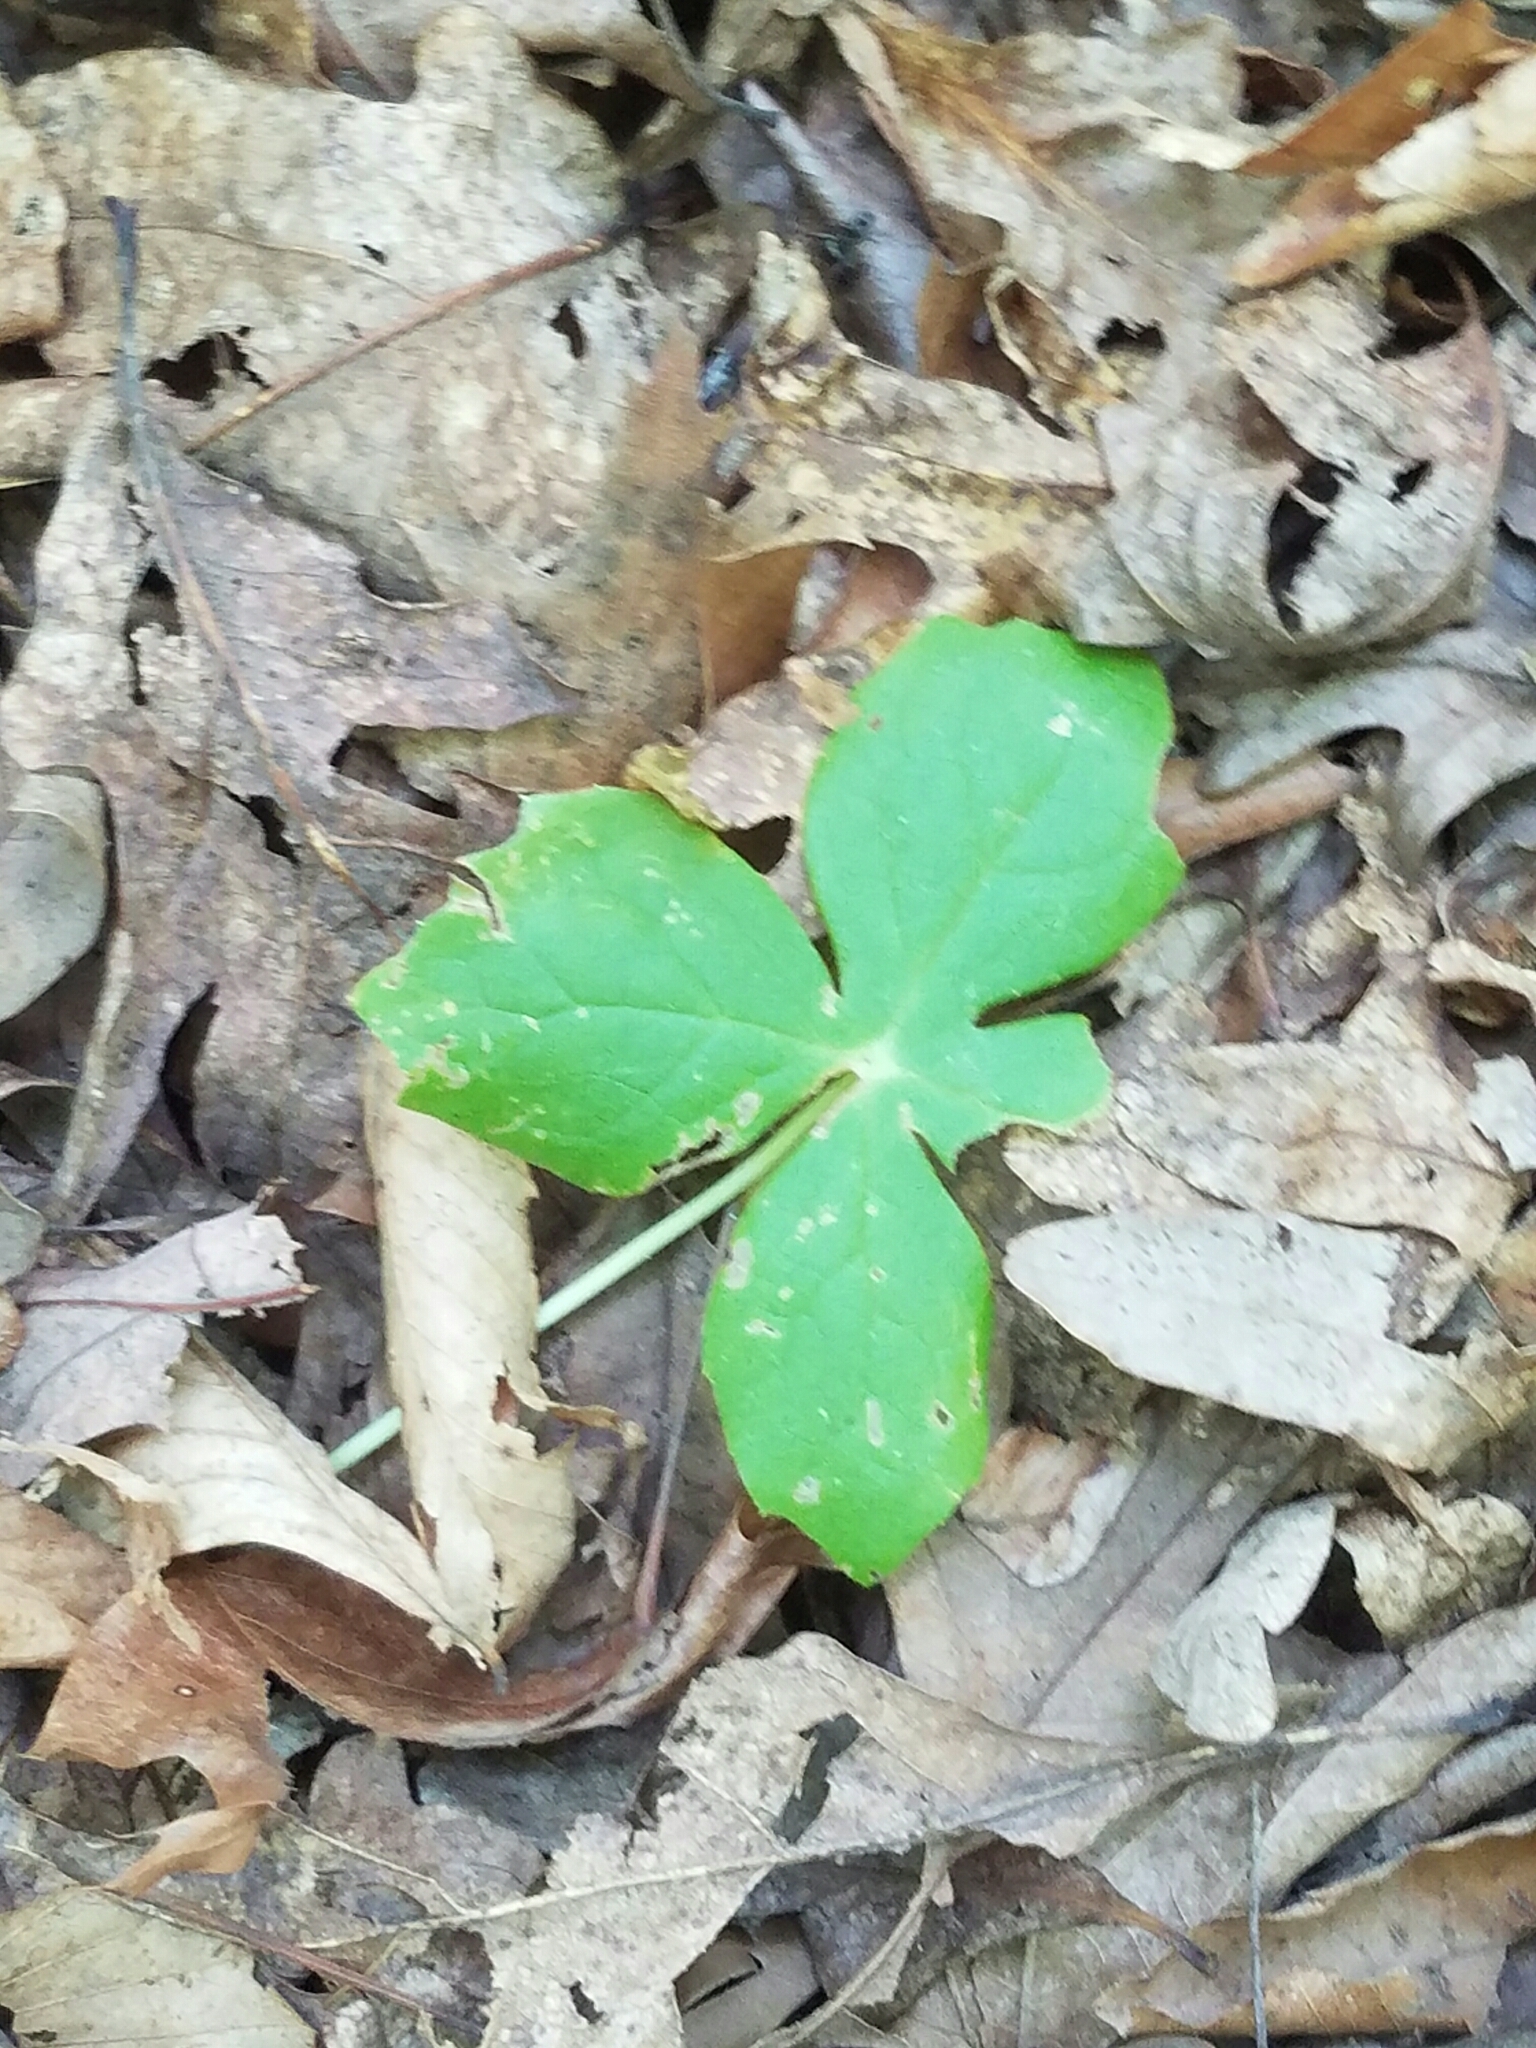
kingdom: Plantae
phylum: Tracheophyta
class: Magnoliopsida
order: Ranunculales
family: Berberidaceae
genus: Podophyllum
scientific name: Podophyllum peltatum
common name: Wild mandrake
